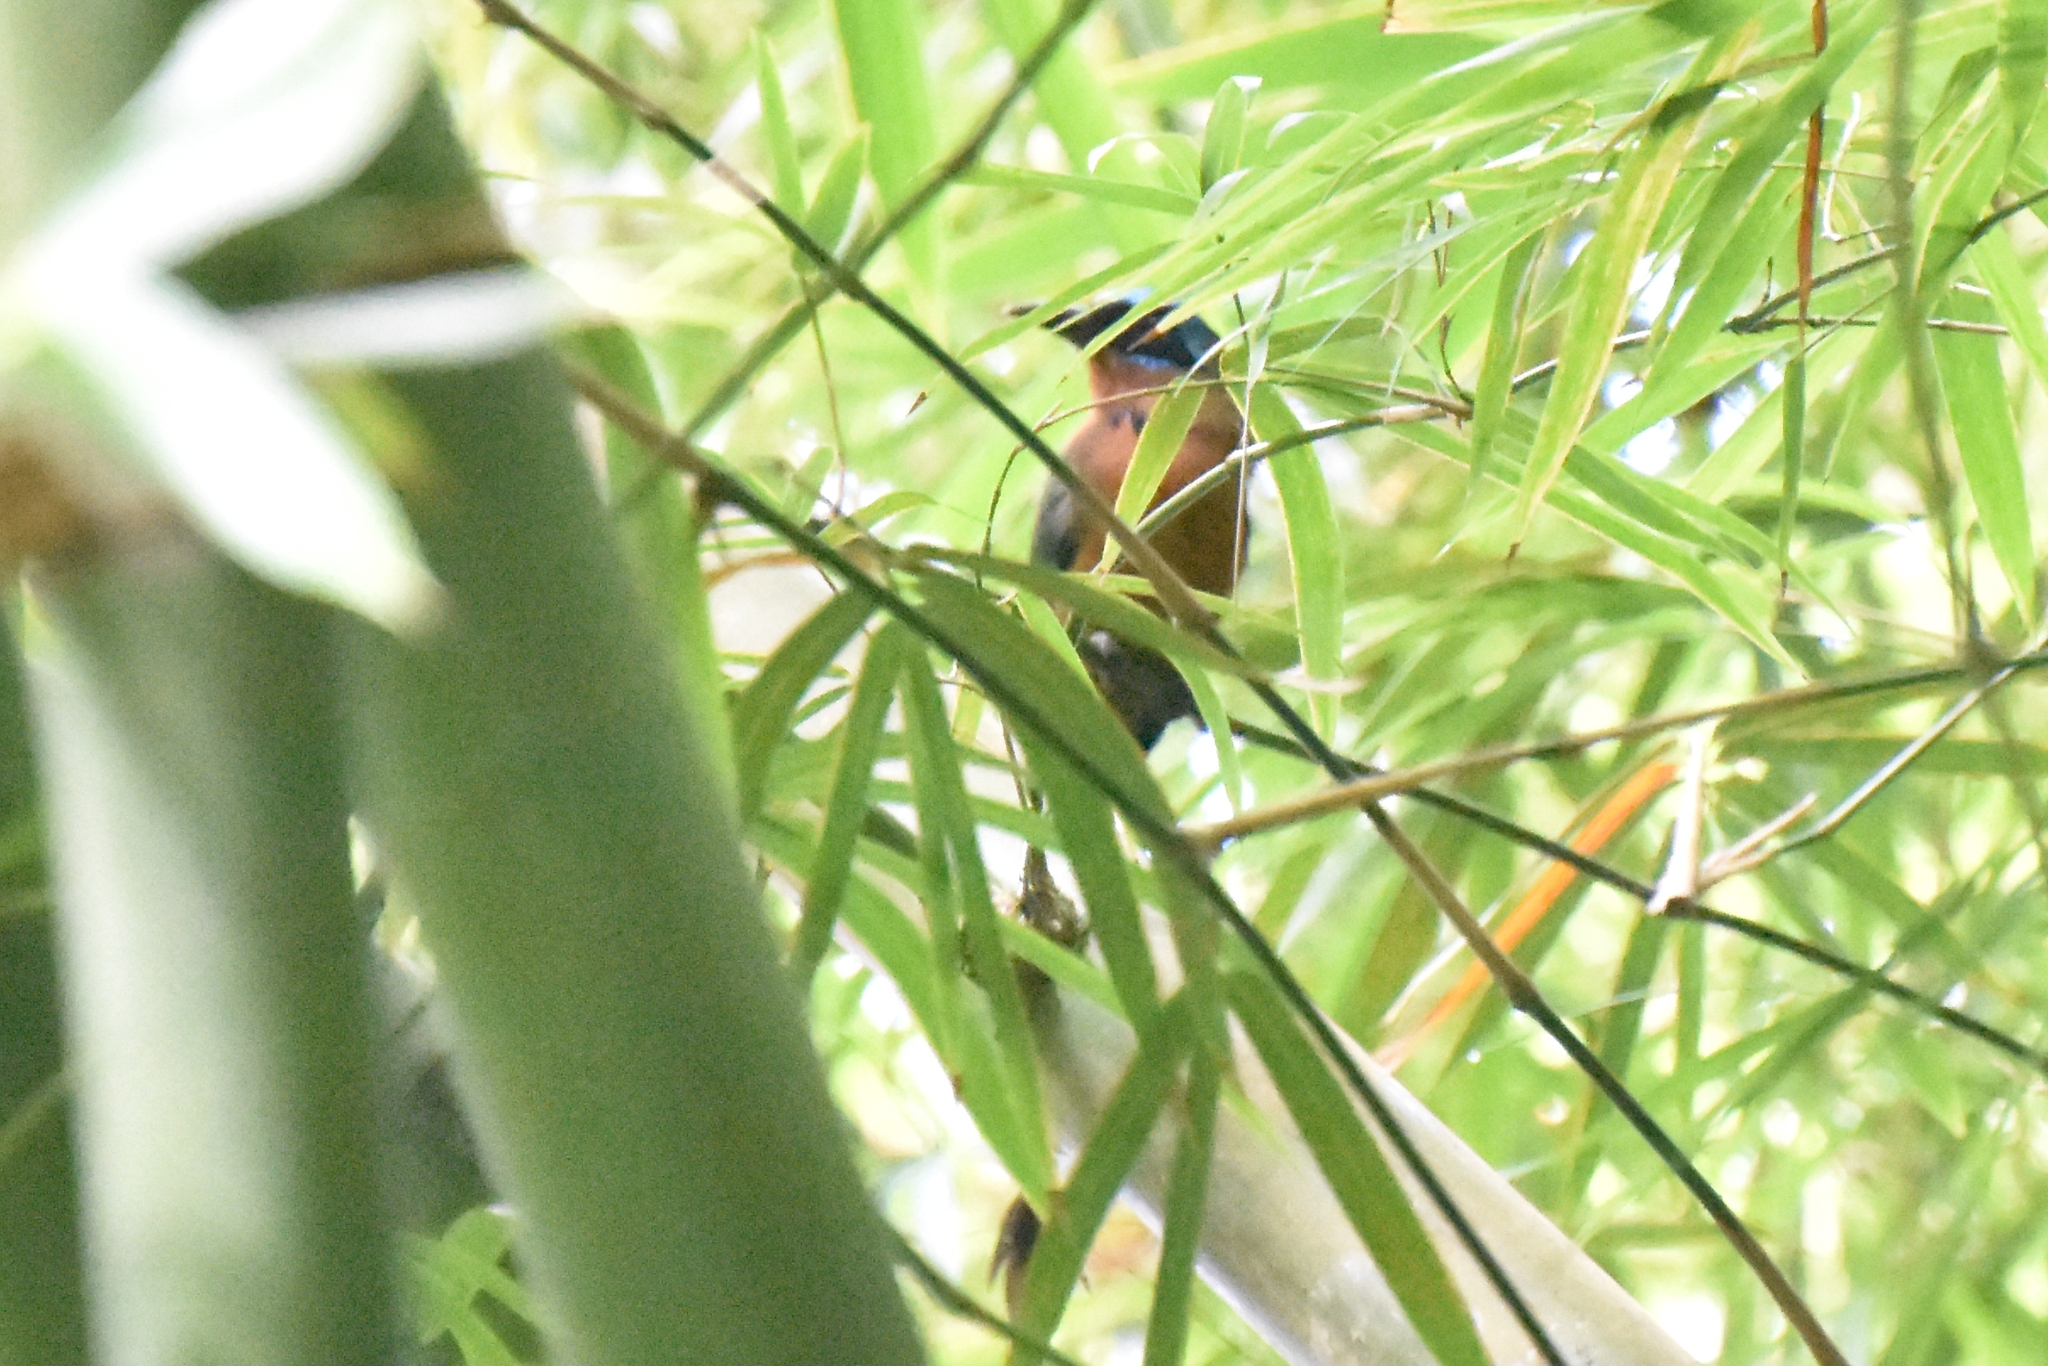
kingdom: Animalia
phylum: Chordata
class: Aves
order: Coraciiformes
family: Momotidae
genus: Momotus
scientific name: Momotus bahamensis
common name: Trinidad motmot
